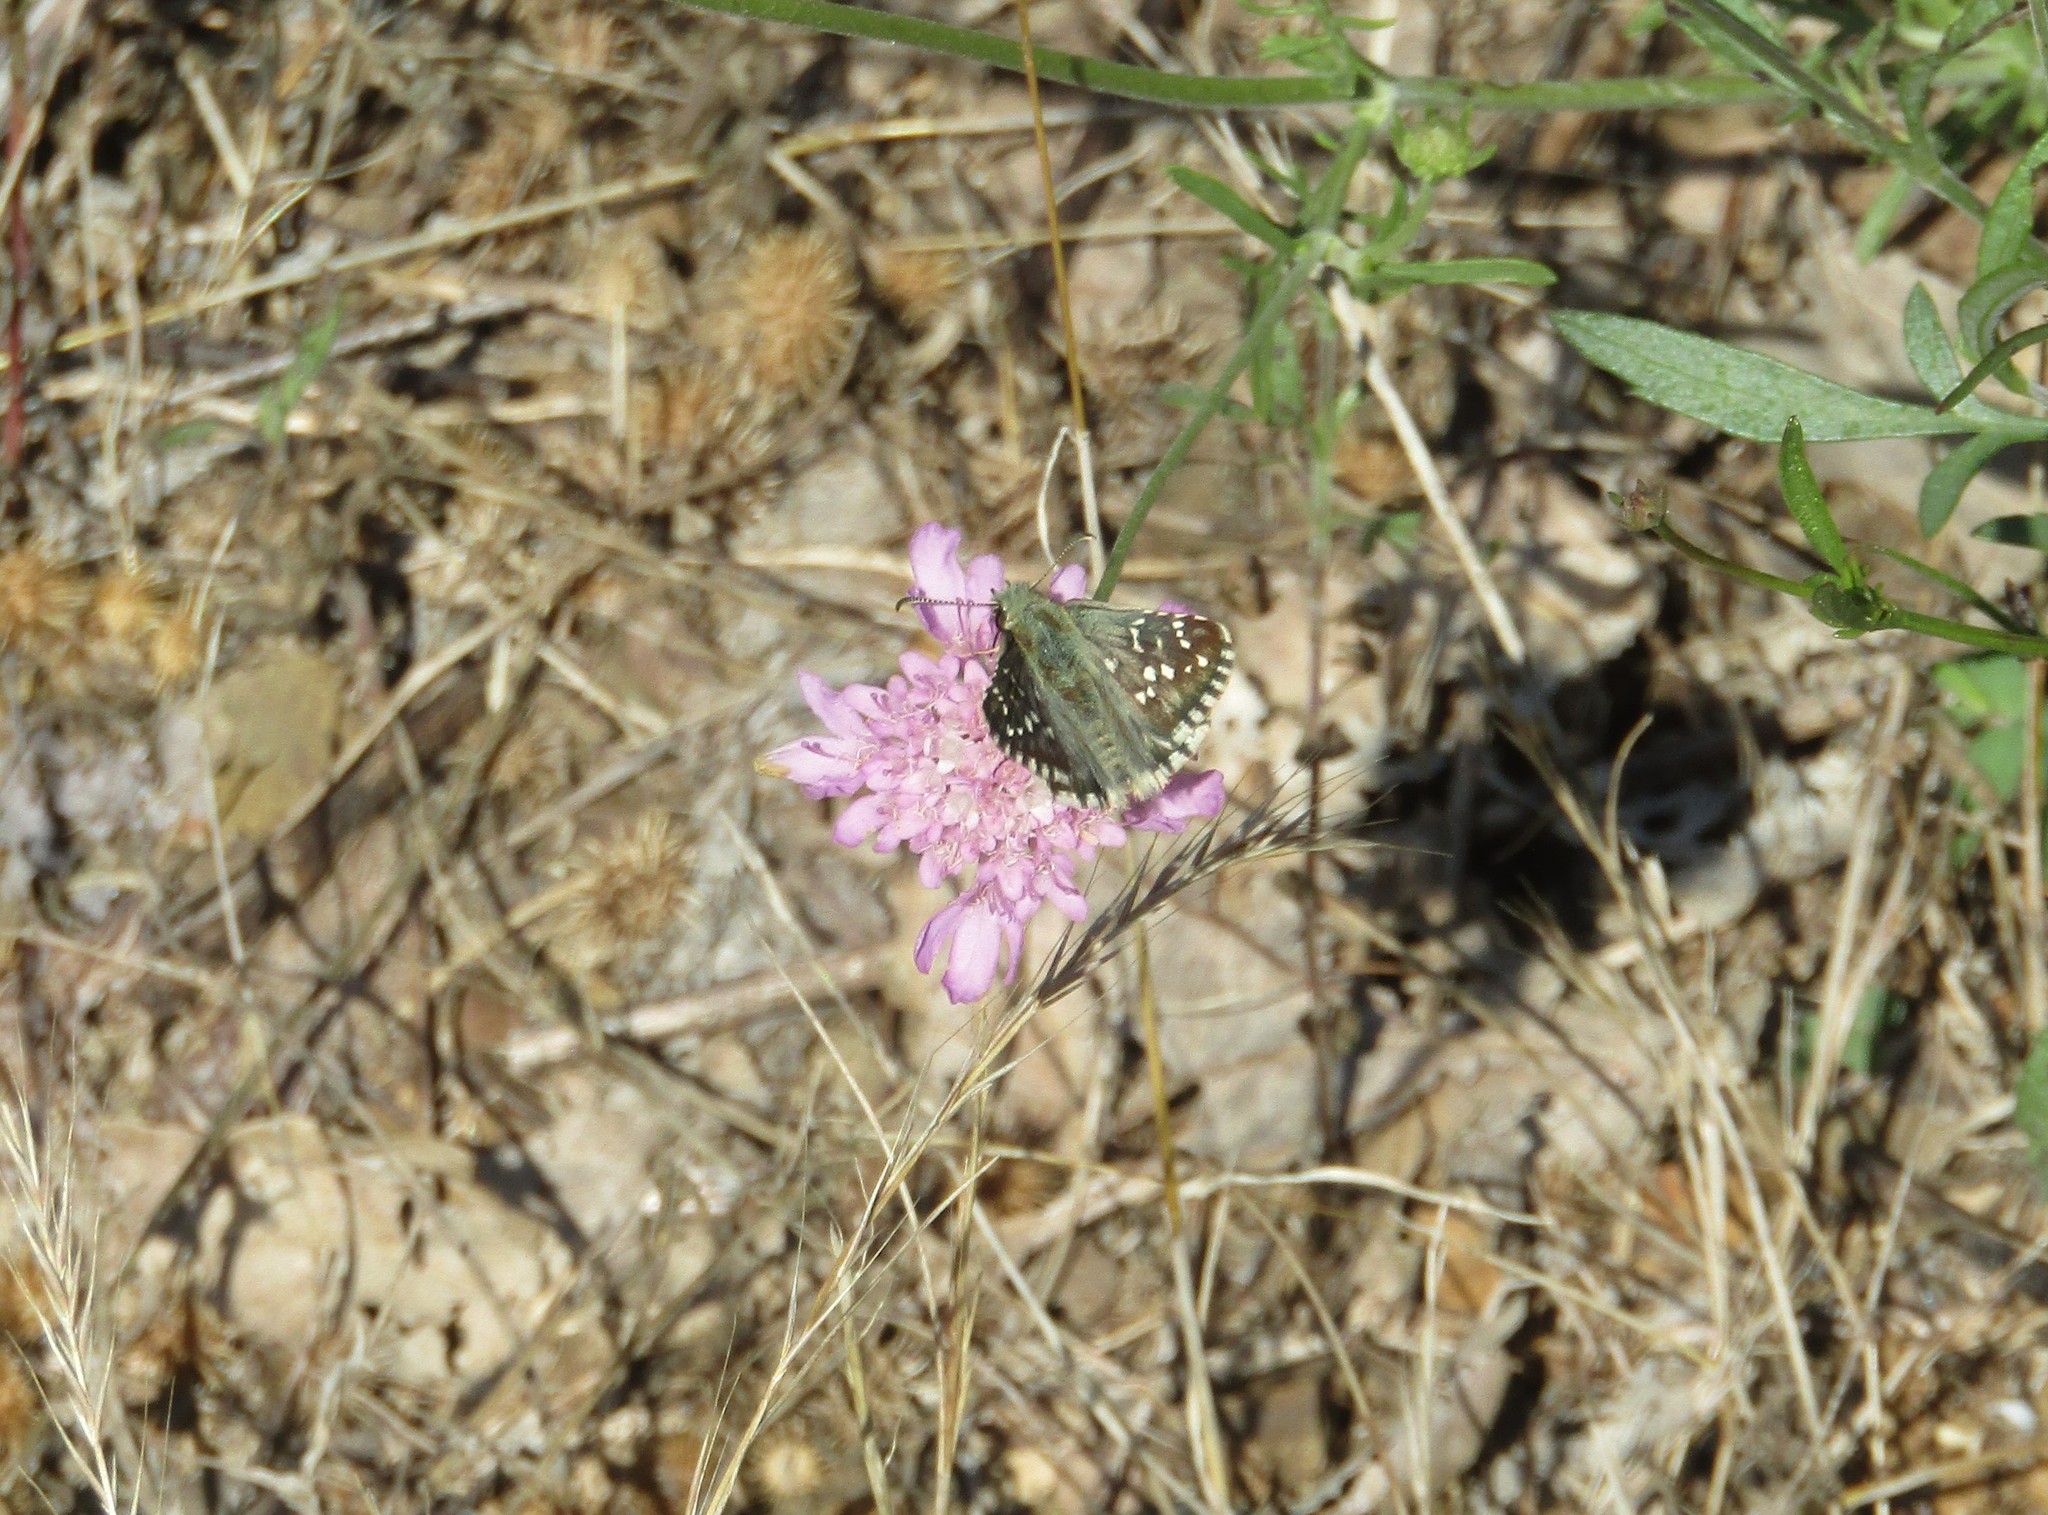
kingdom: Animalia
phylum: Arthropoda
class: Insecta
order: Lepidoptera
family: Hesperiidae
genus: Pyrgus
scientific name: Pyrgus armoricanus
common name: Oberthür's grizzled skipper
